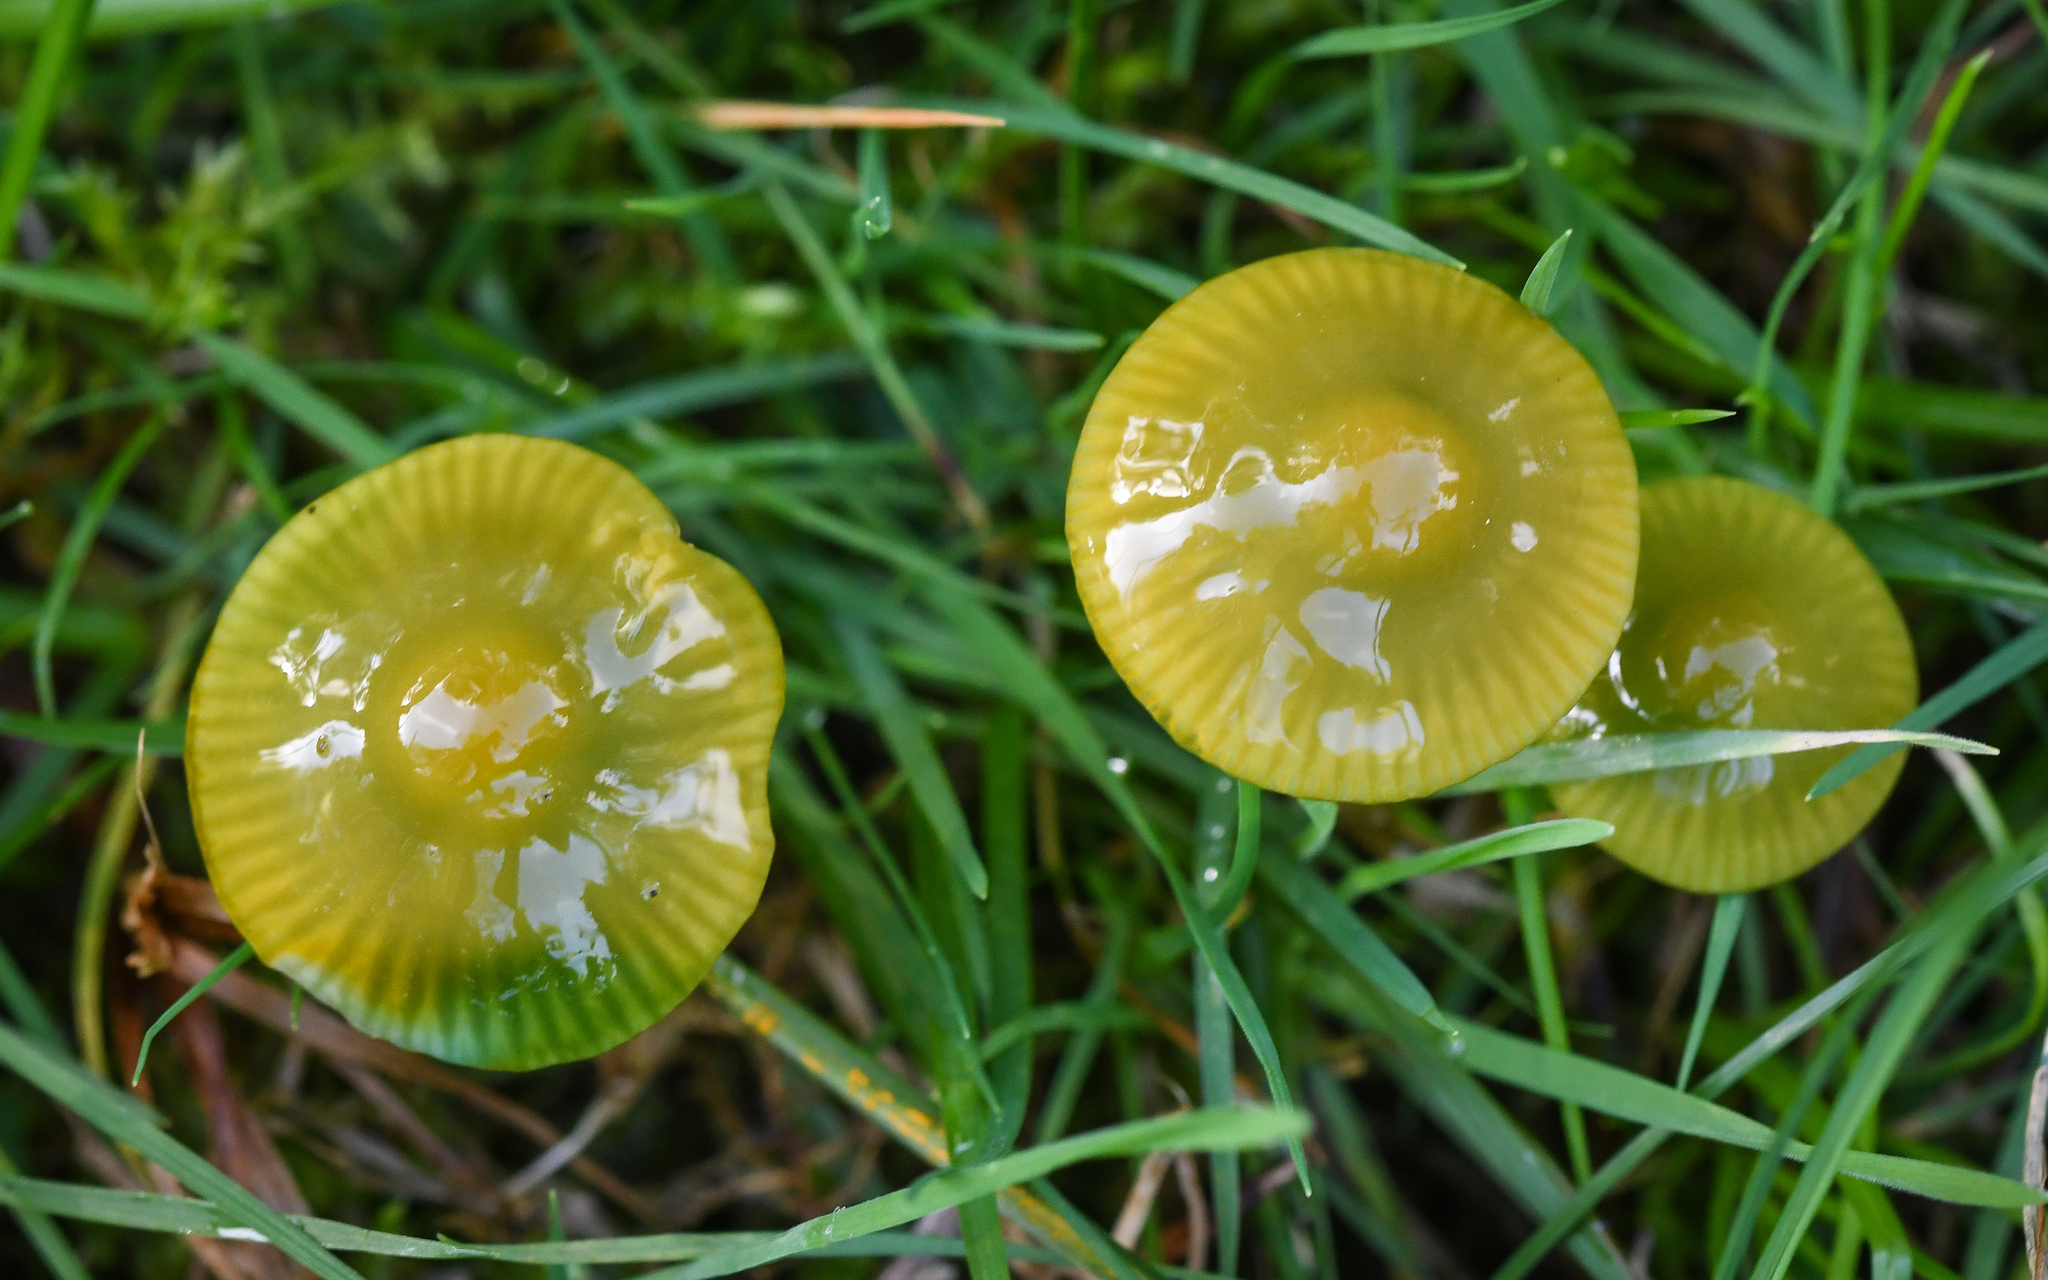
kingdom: Fungi
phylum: Basidiomycota
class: Agaricomycetes
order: Agaricales
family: Hygrophoraceae
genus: Gliophorus
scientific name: Gliophorus psittacinus
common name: Parrot wax-cap
